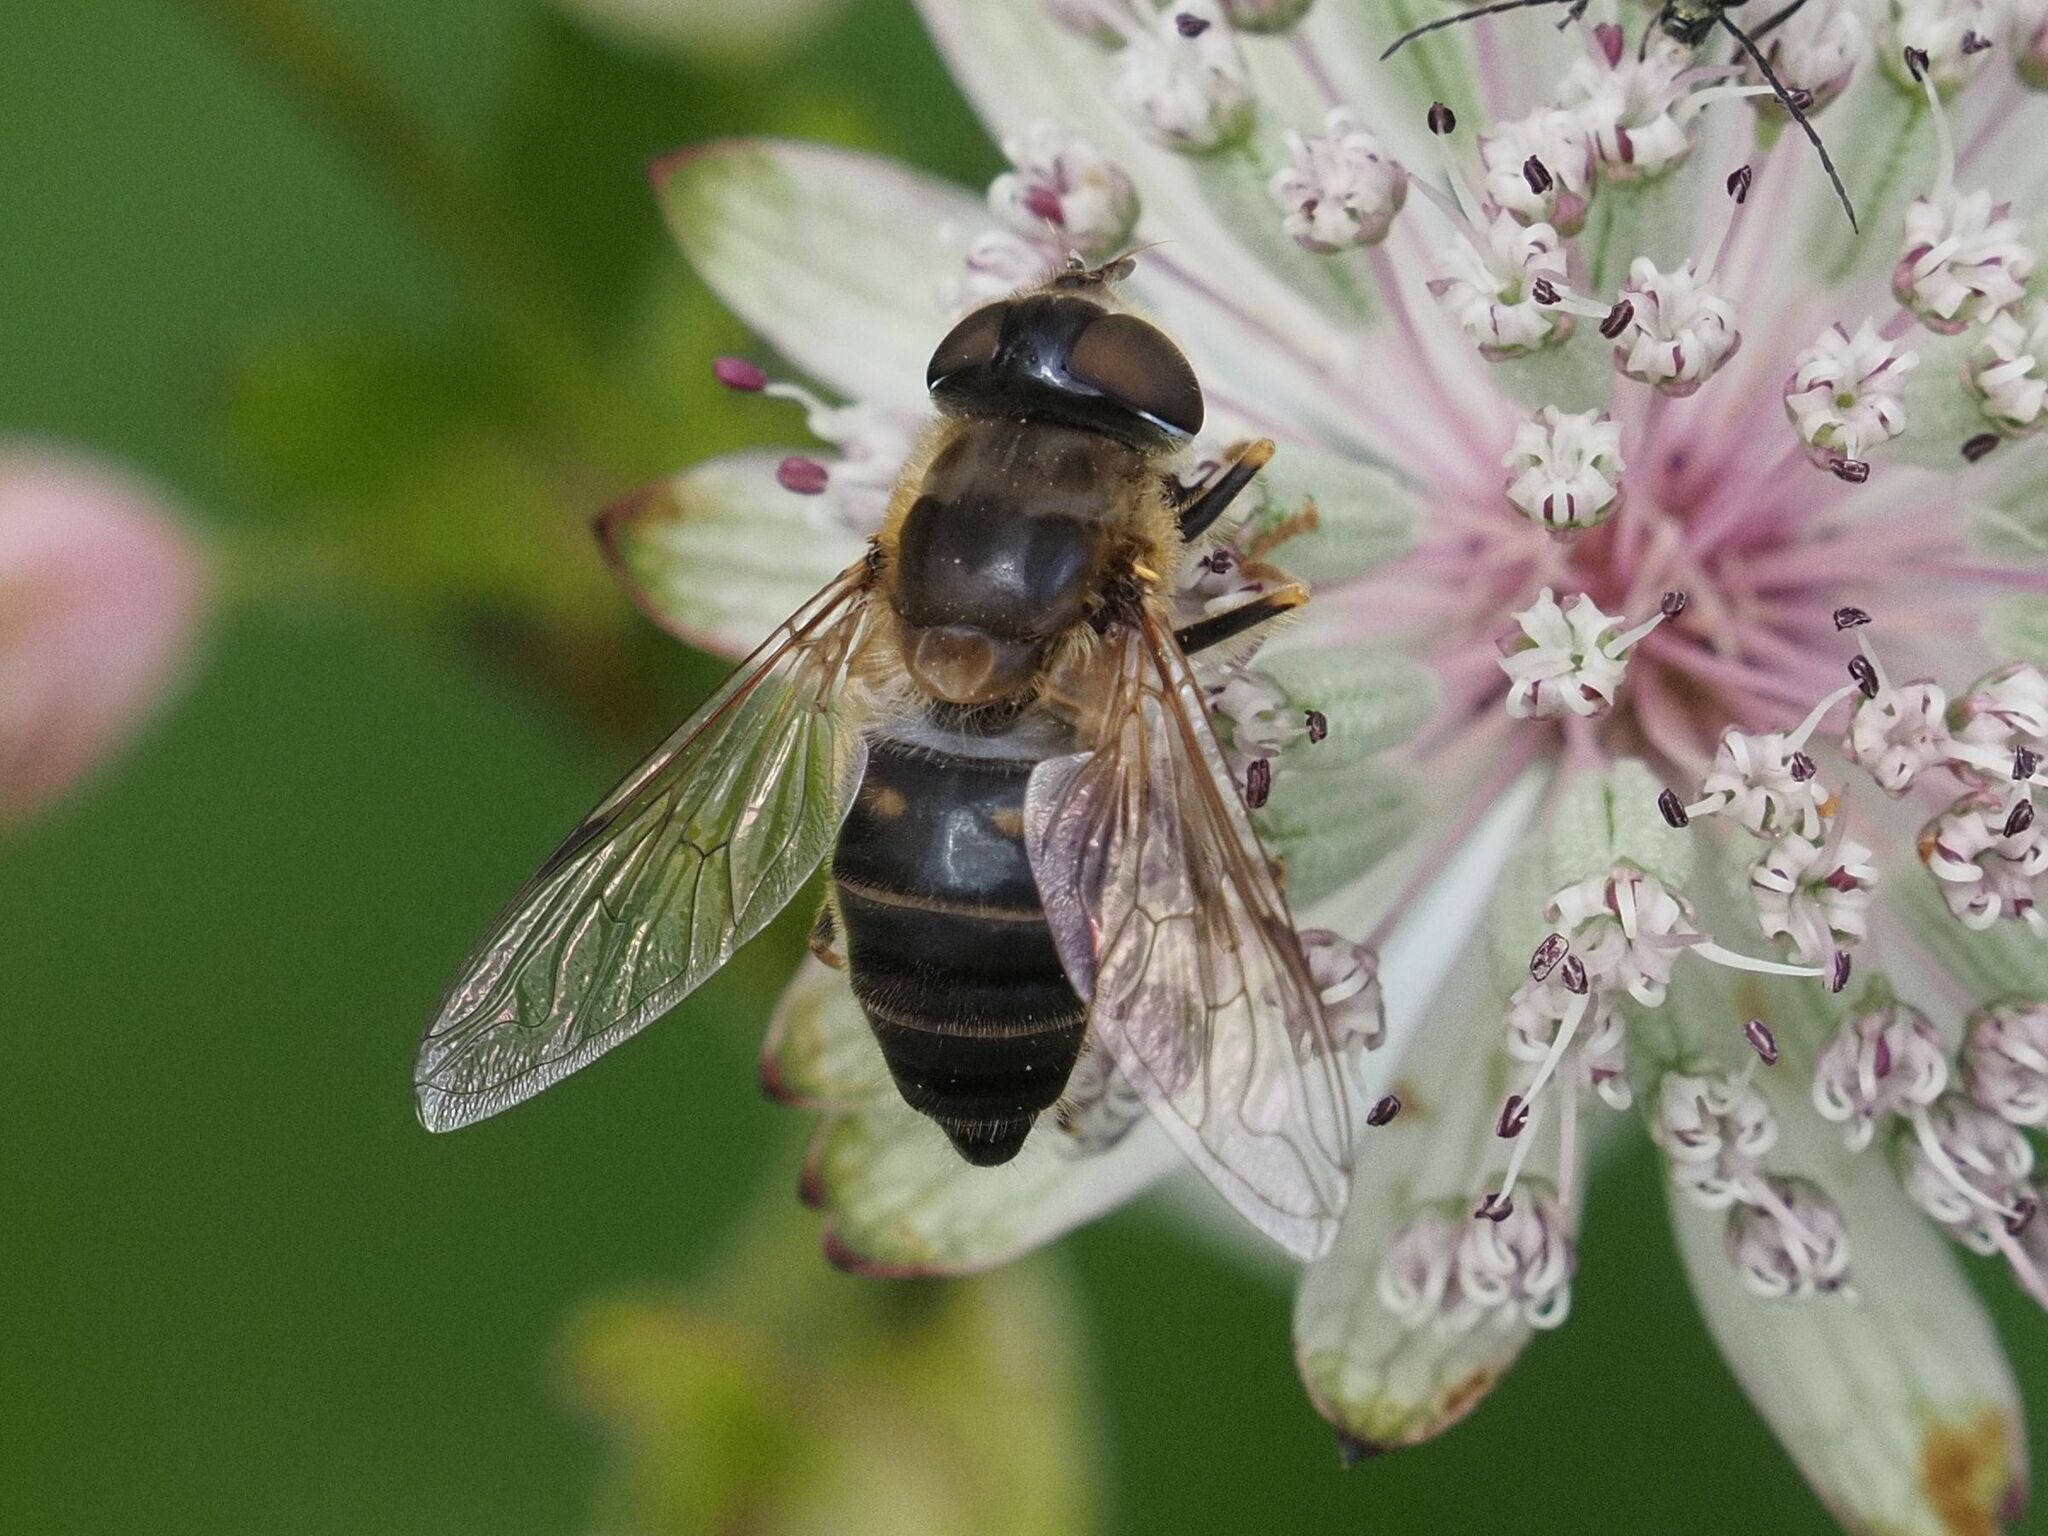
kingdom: Animalia
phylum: Arthropoda
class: Insecta
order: Diptera
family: Syrphidae
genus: Eristalis
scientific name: Eristalis pertinax
